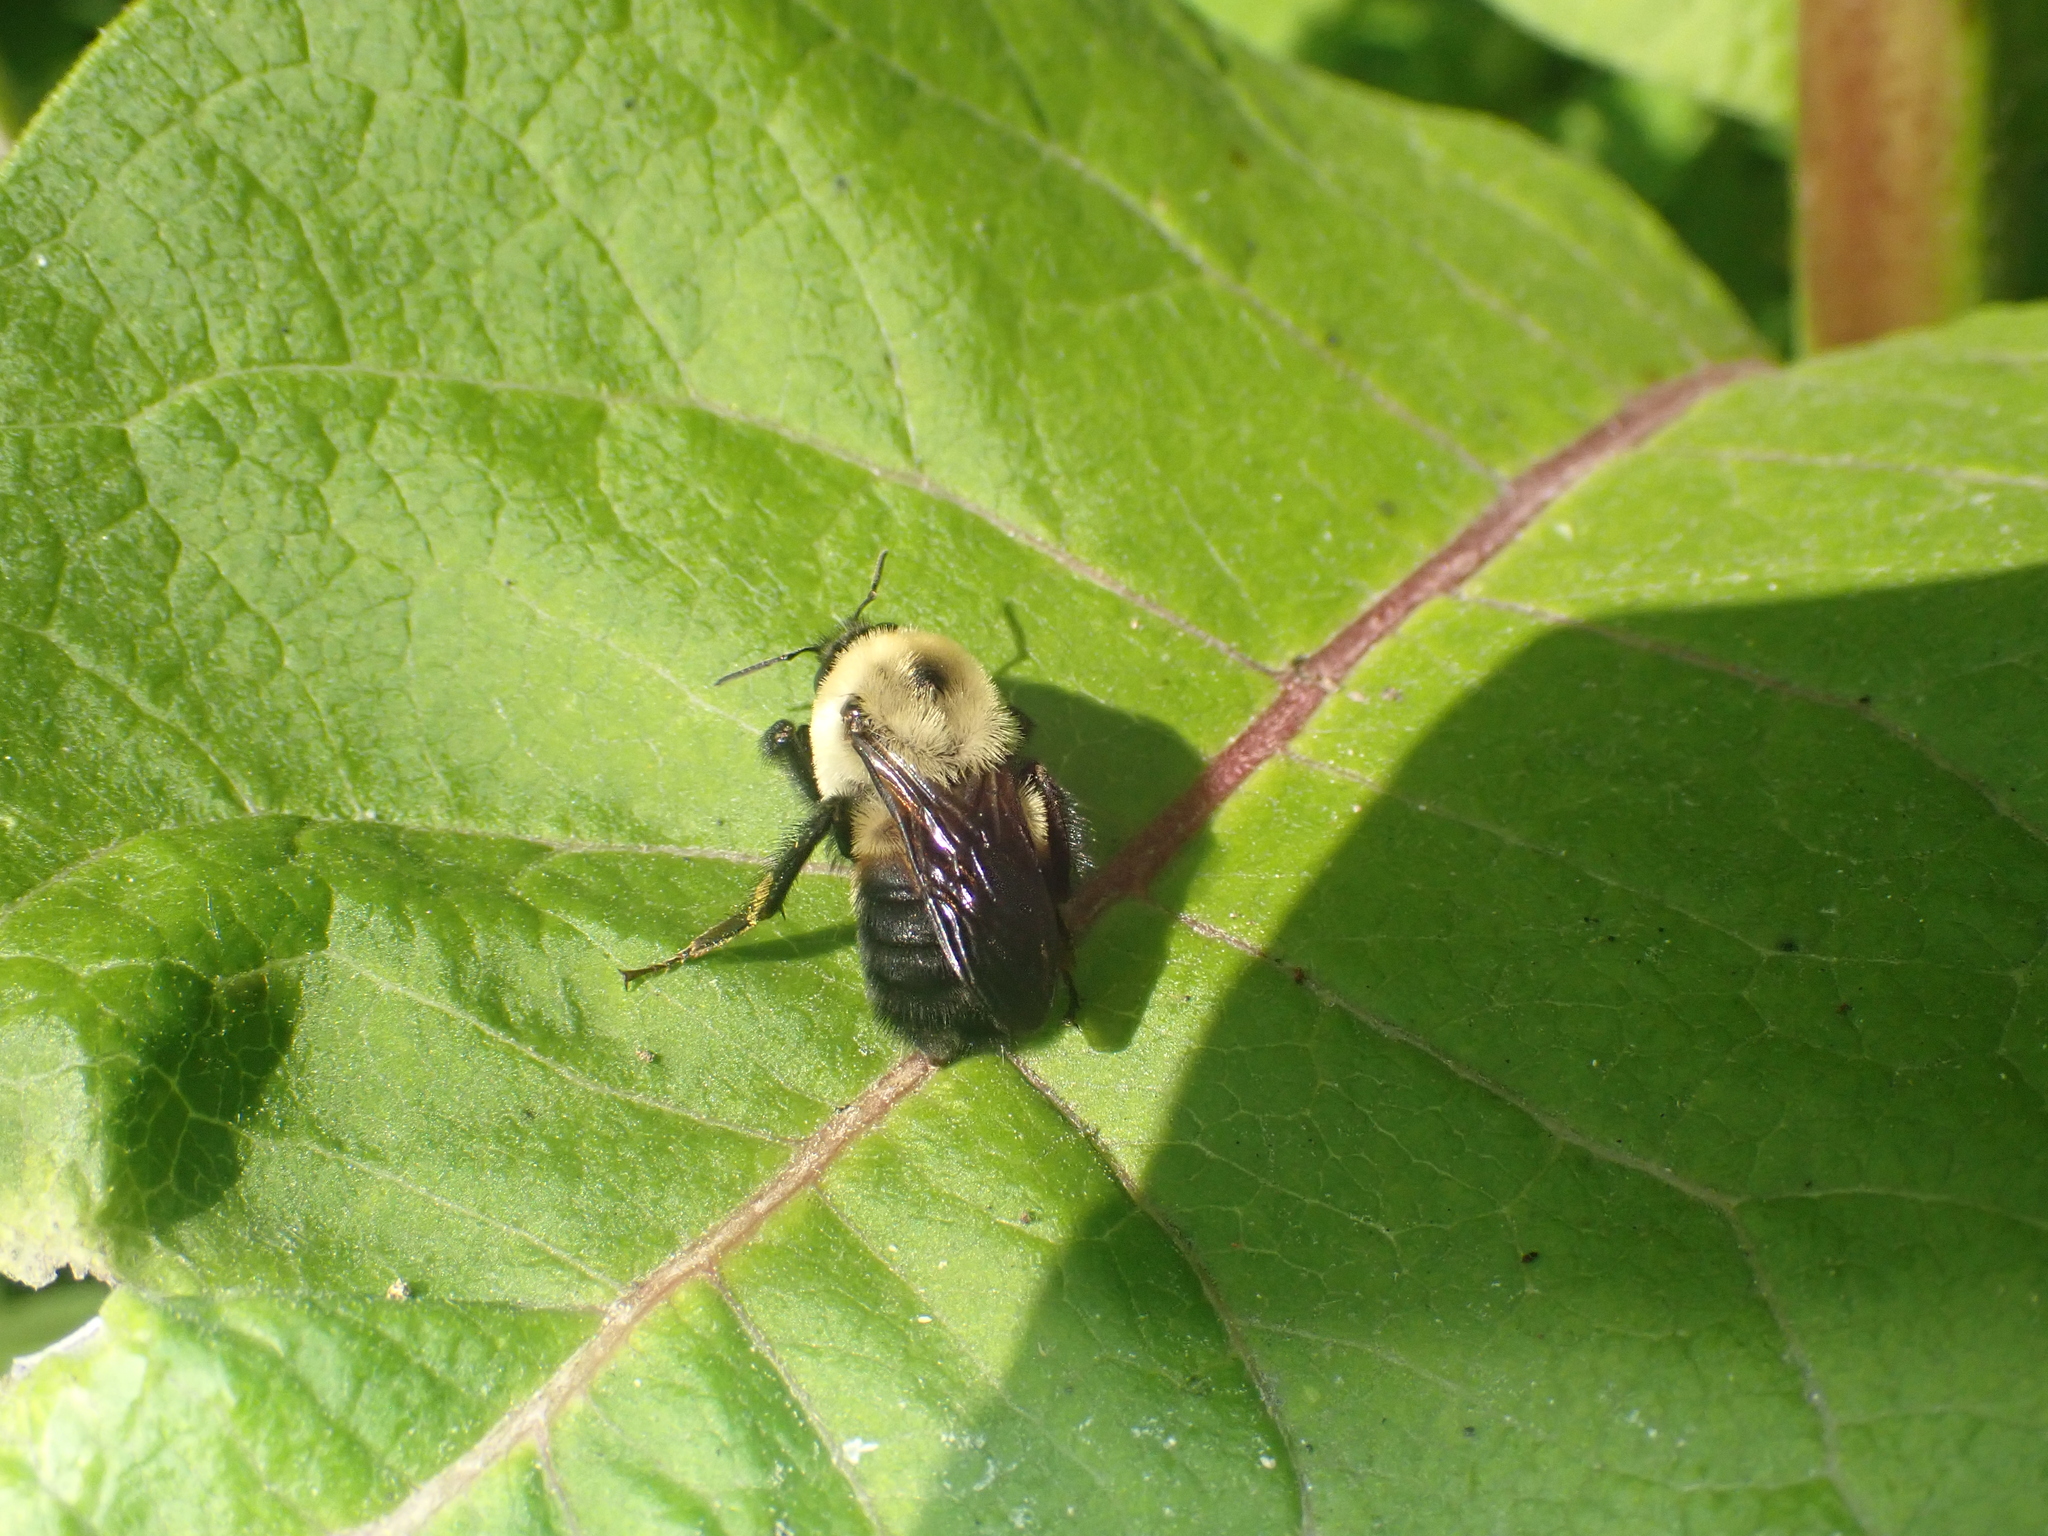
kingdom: Animalia
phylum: Arthropoda
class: Insecta
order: Hymenoptera
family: Apidae
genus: Bombus
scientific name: Bombus griseocollis
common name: Brown-belted bumble bee
